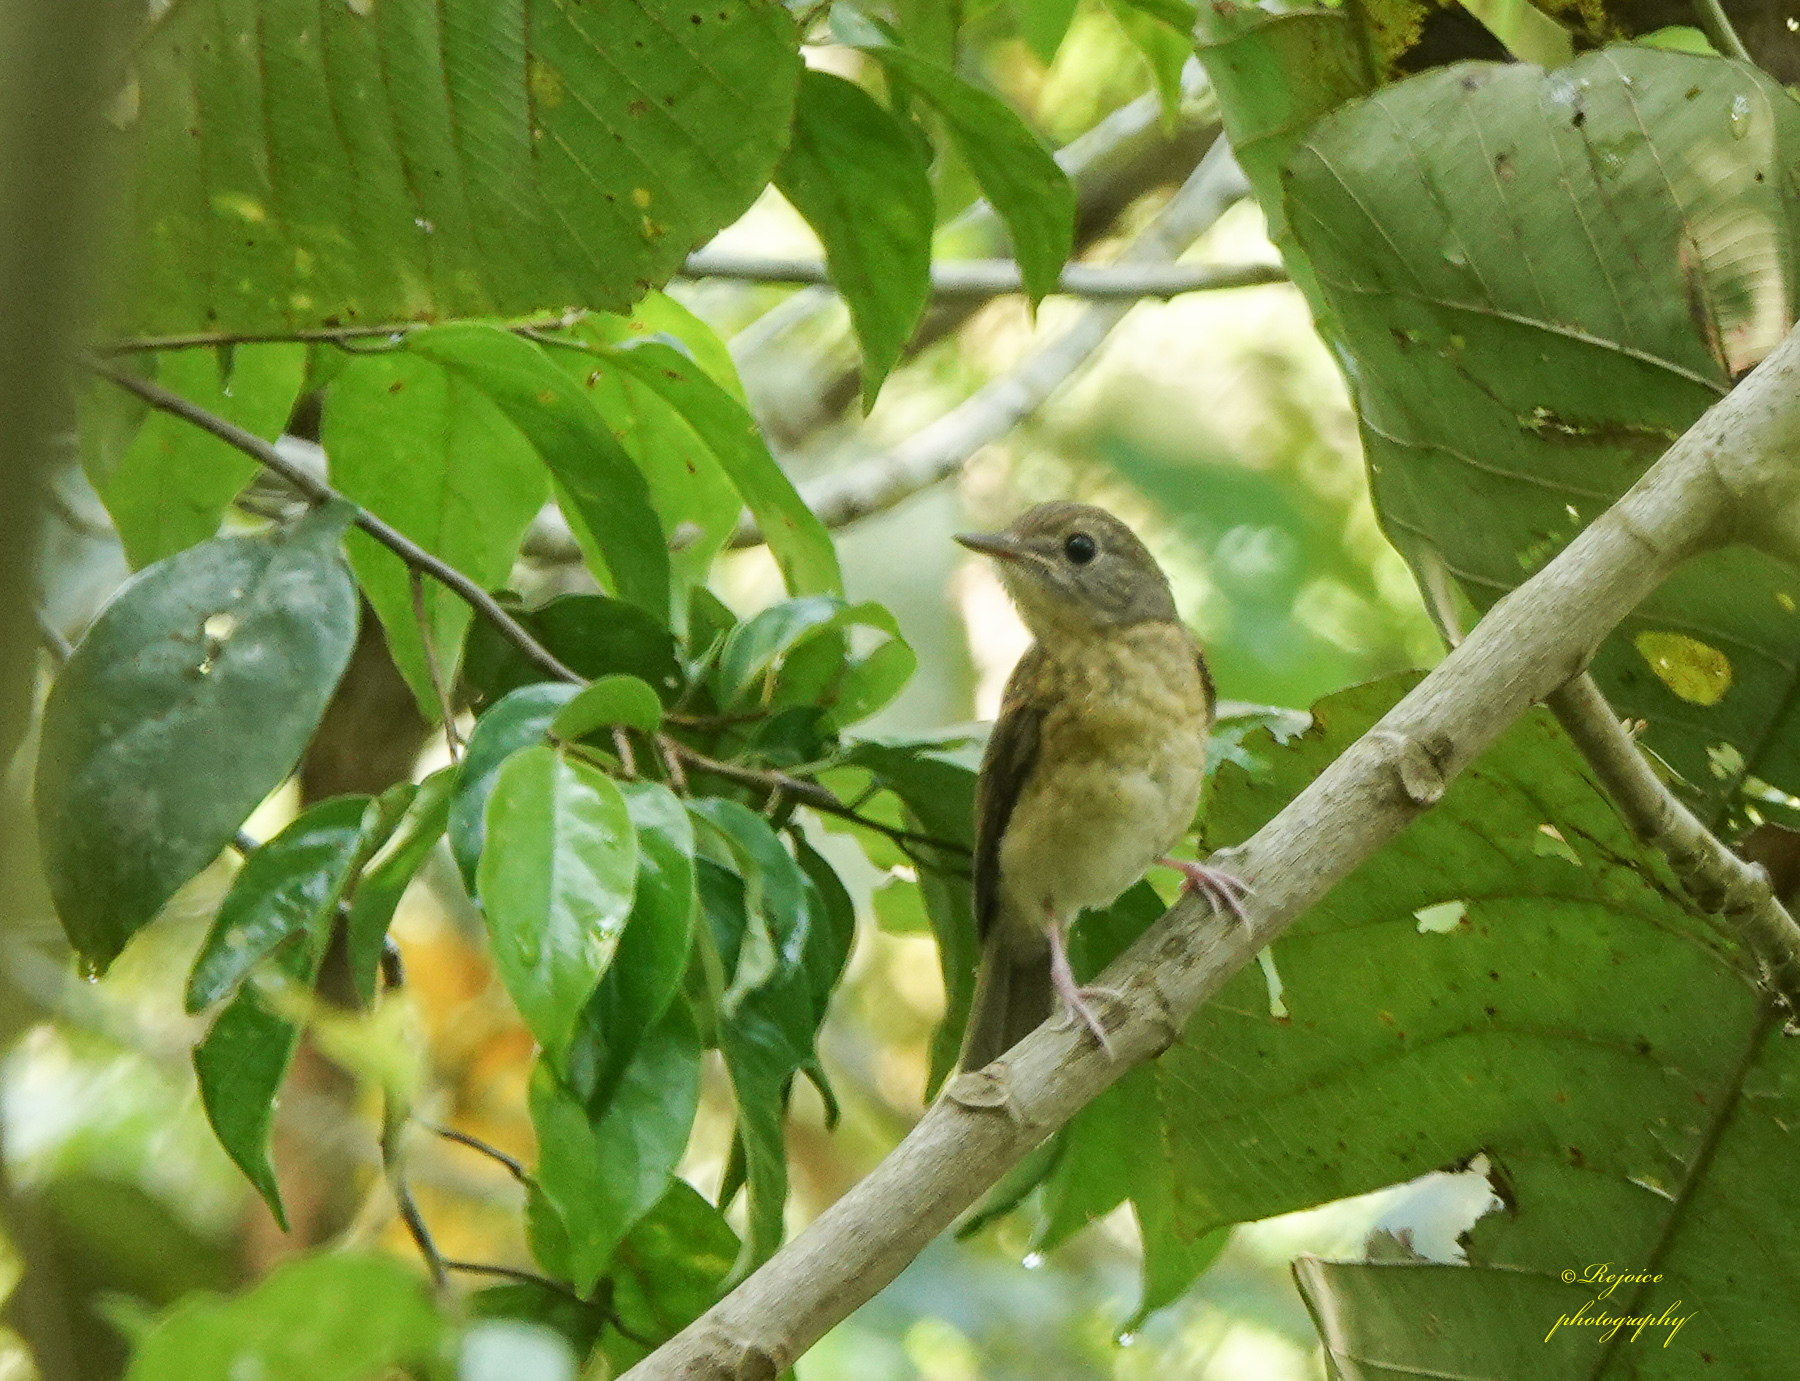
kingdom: Animalia
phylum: Chordata
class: Aves
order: Passeriformes
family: Muscicapidae
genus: Cyornis
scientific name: Cyornis poliogenys
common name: Pale-chinned blue flycatcher
